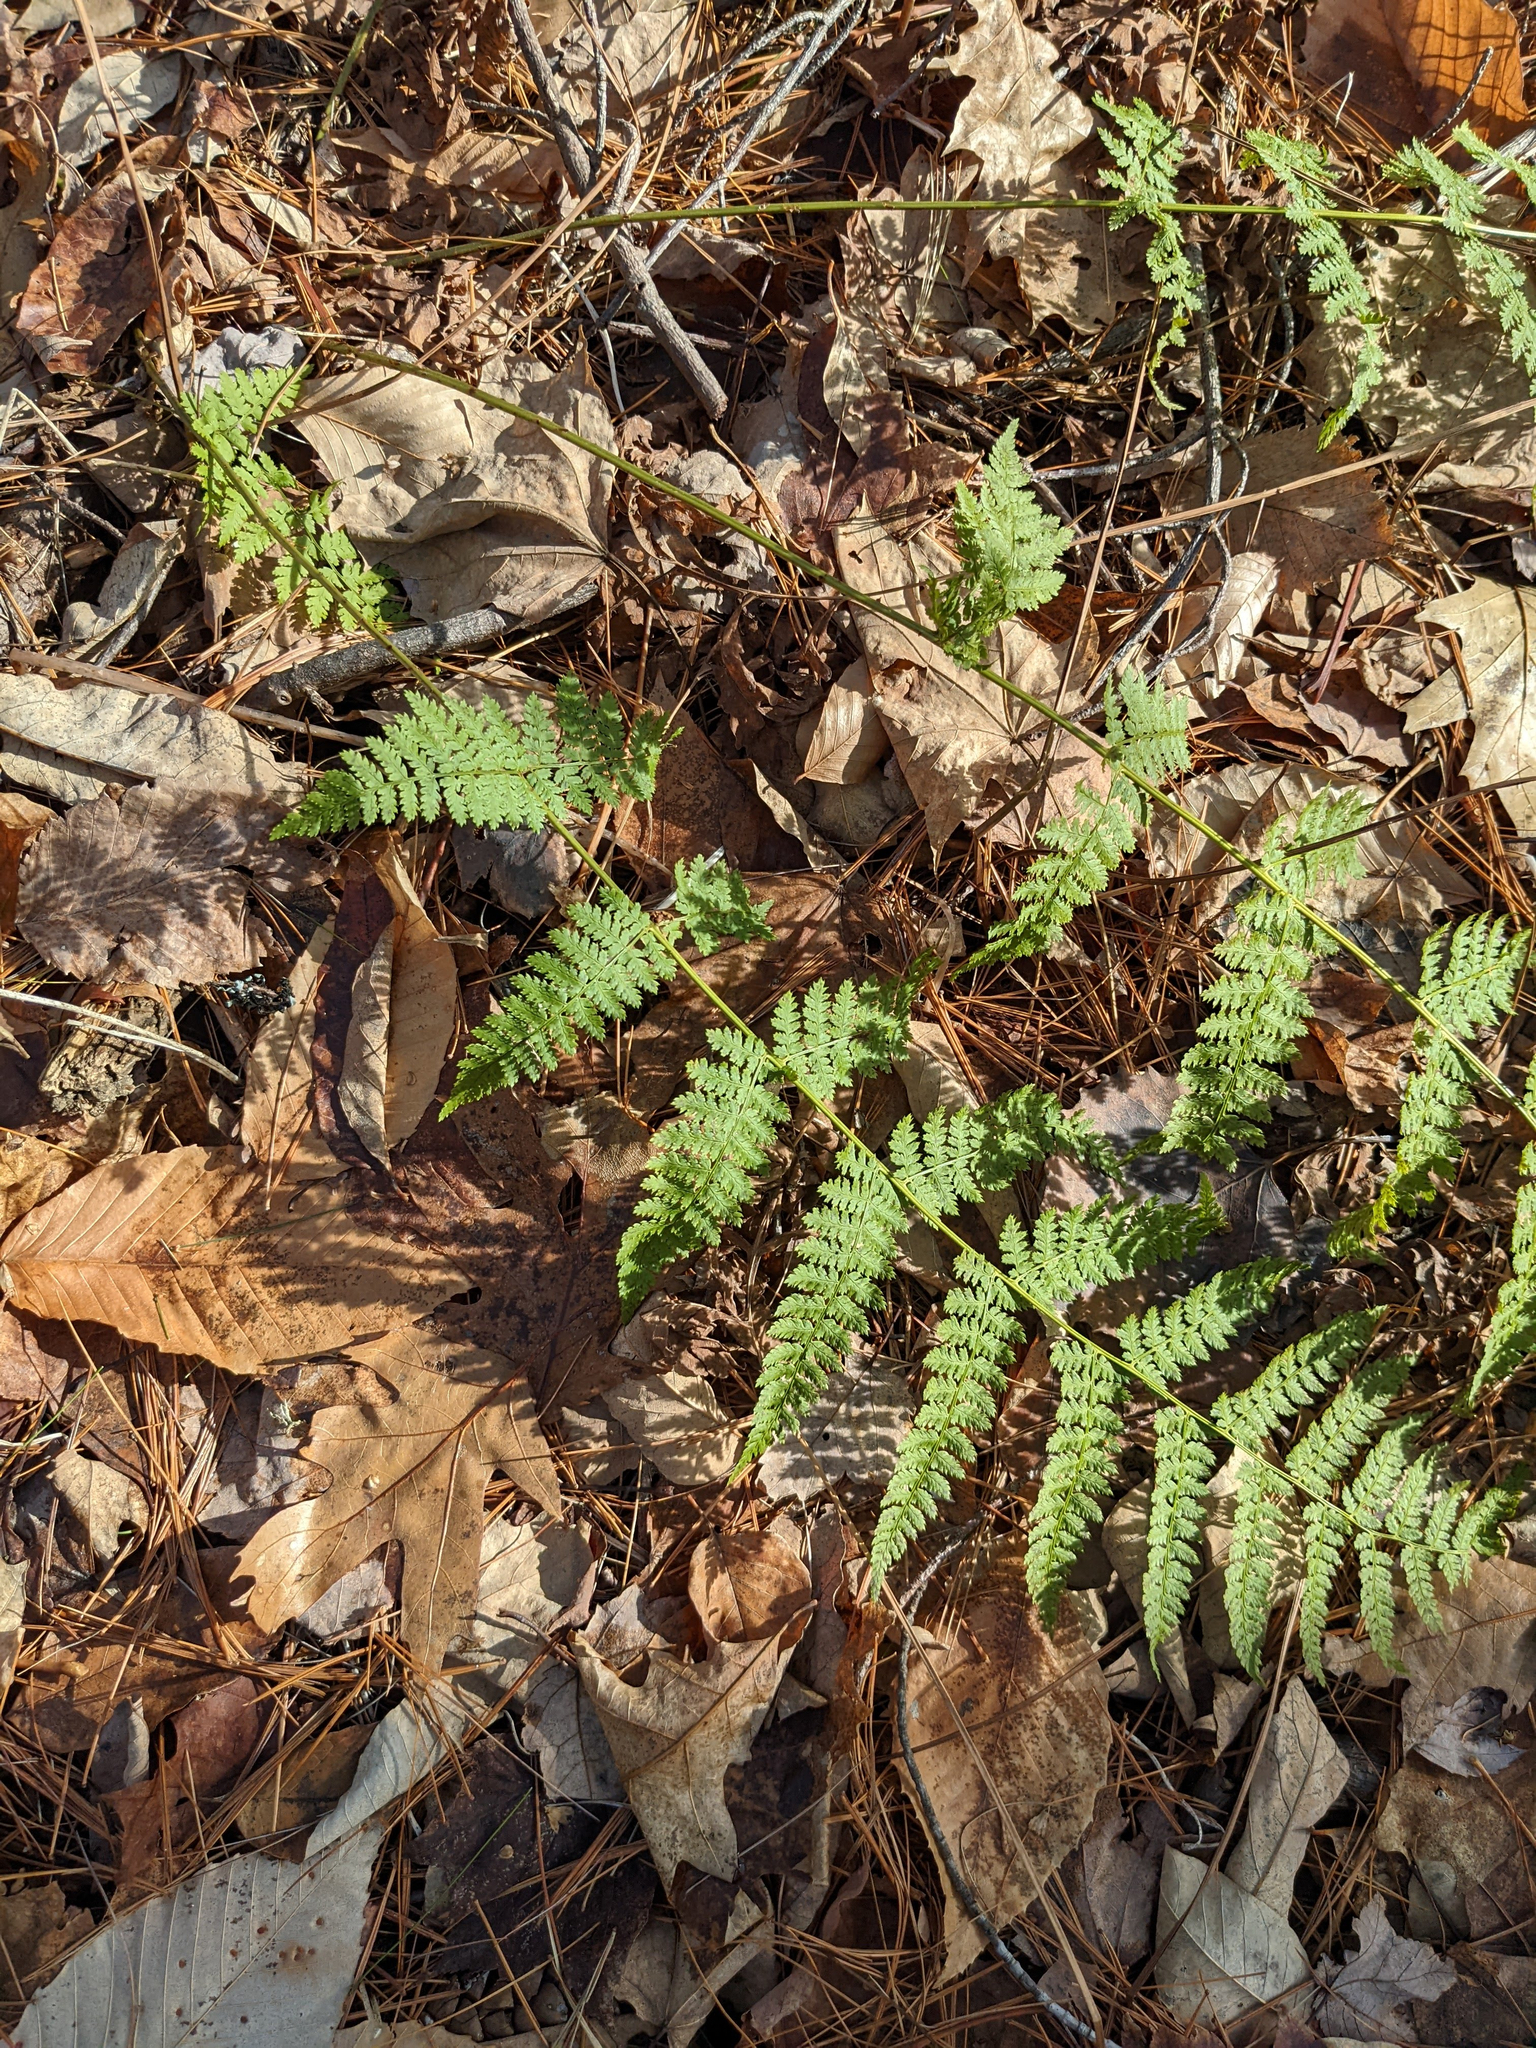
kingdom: Plantae
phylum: Tracheophyta
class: Polypodiopsida
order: Polypodiales
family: Dryopteridaceae
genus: Dryopteris
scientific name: Dryopteris intermedia
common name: Evergreen wood fern
